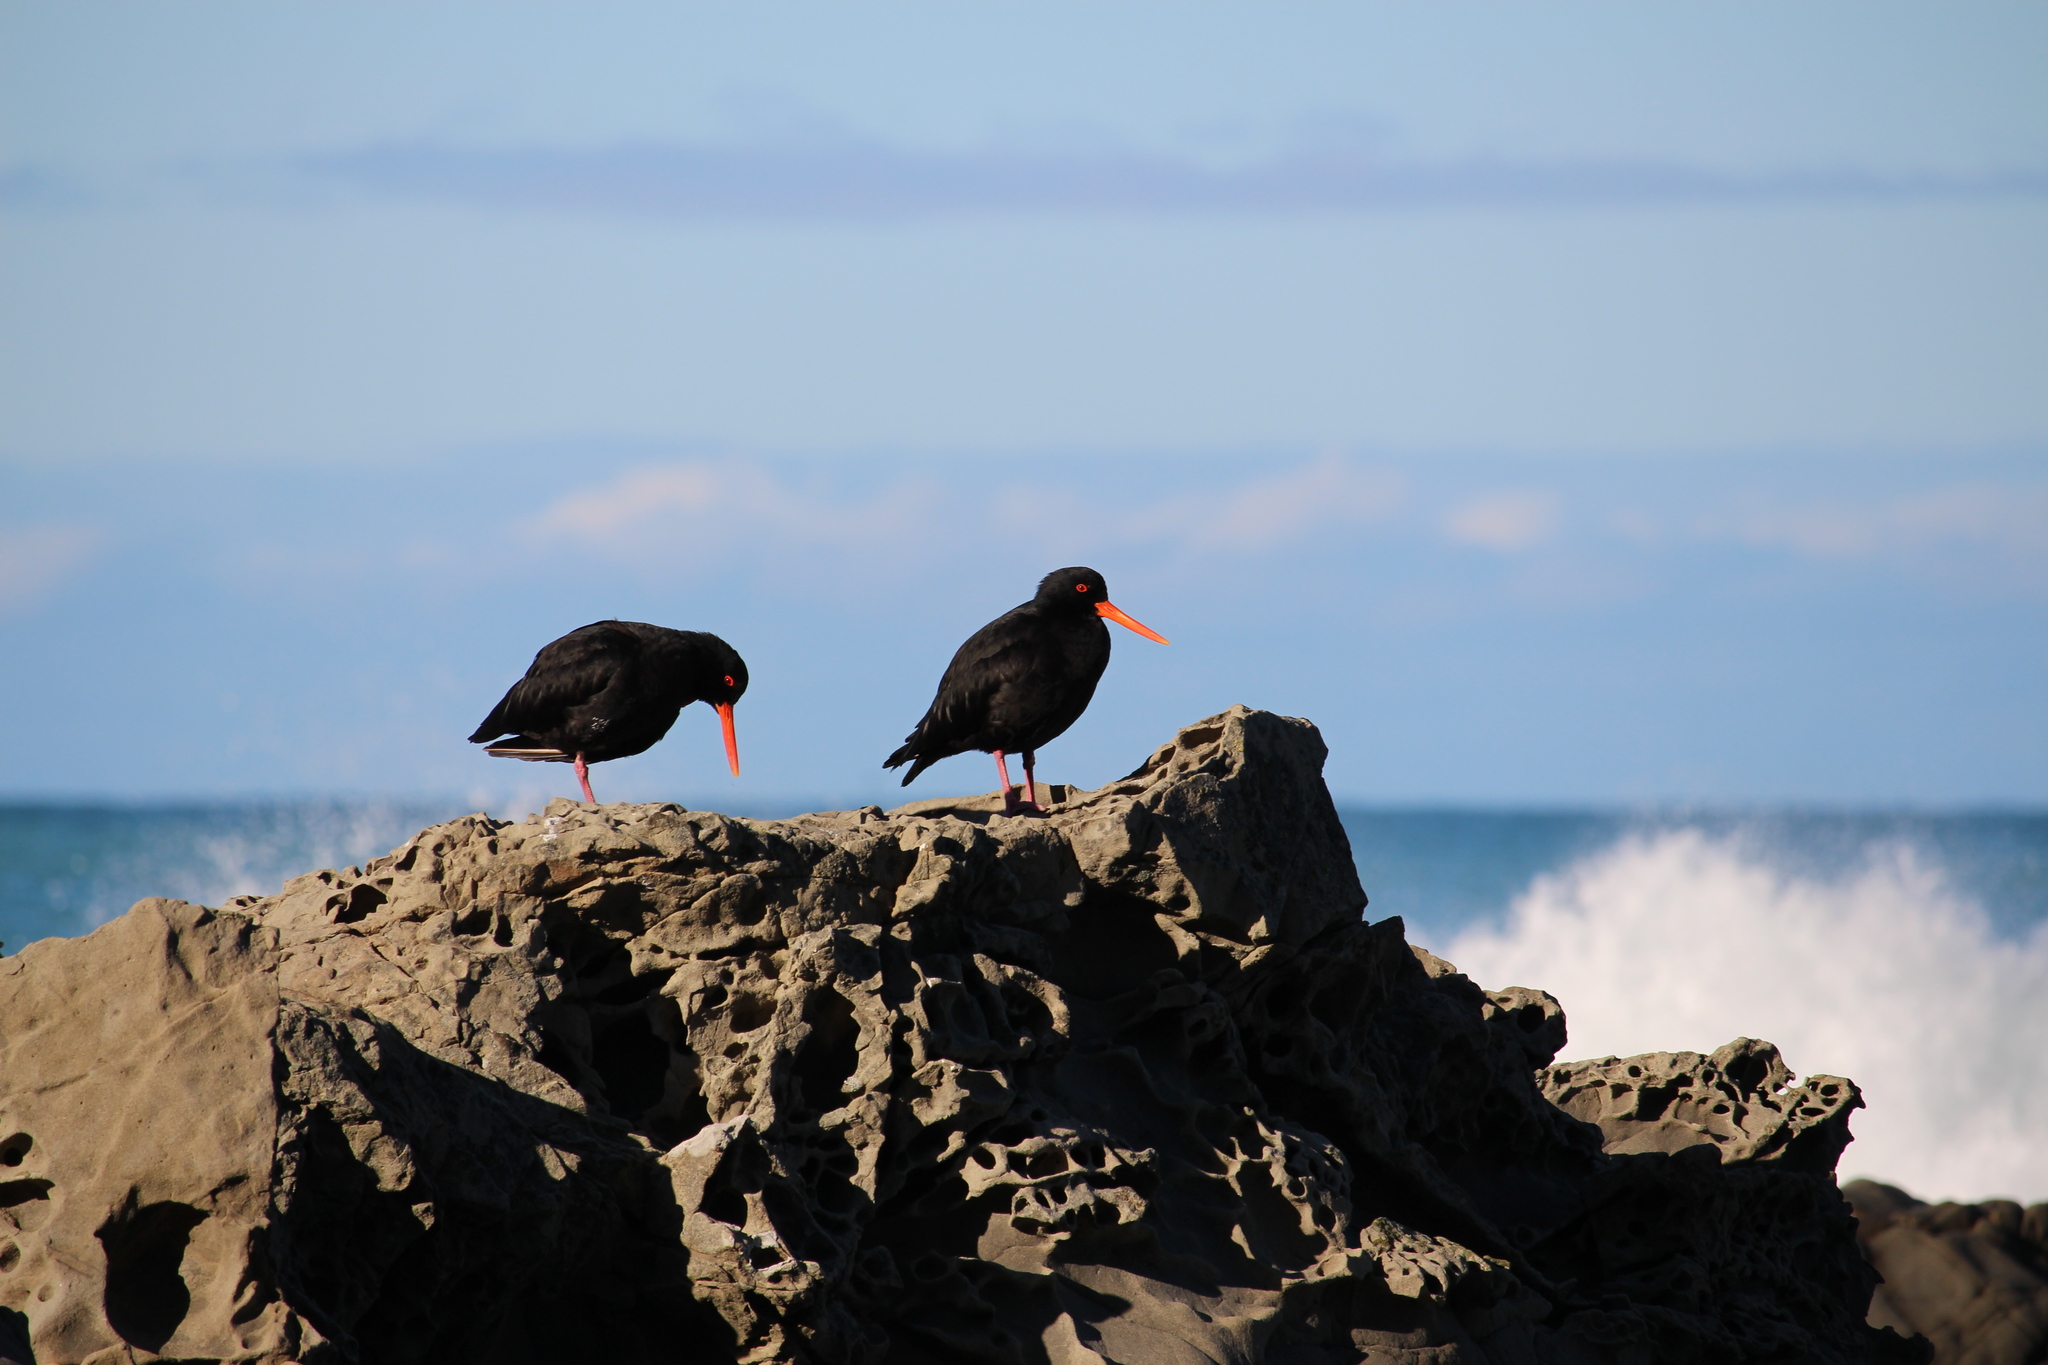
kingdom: Animalia
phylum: Chordata
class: Aves
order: Charadriiformes
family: Haematopodidae
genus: Haematopus
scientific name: Haematopus unicolor
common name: Variable oystercatcher
